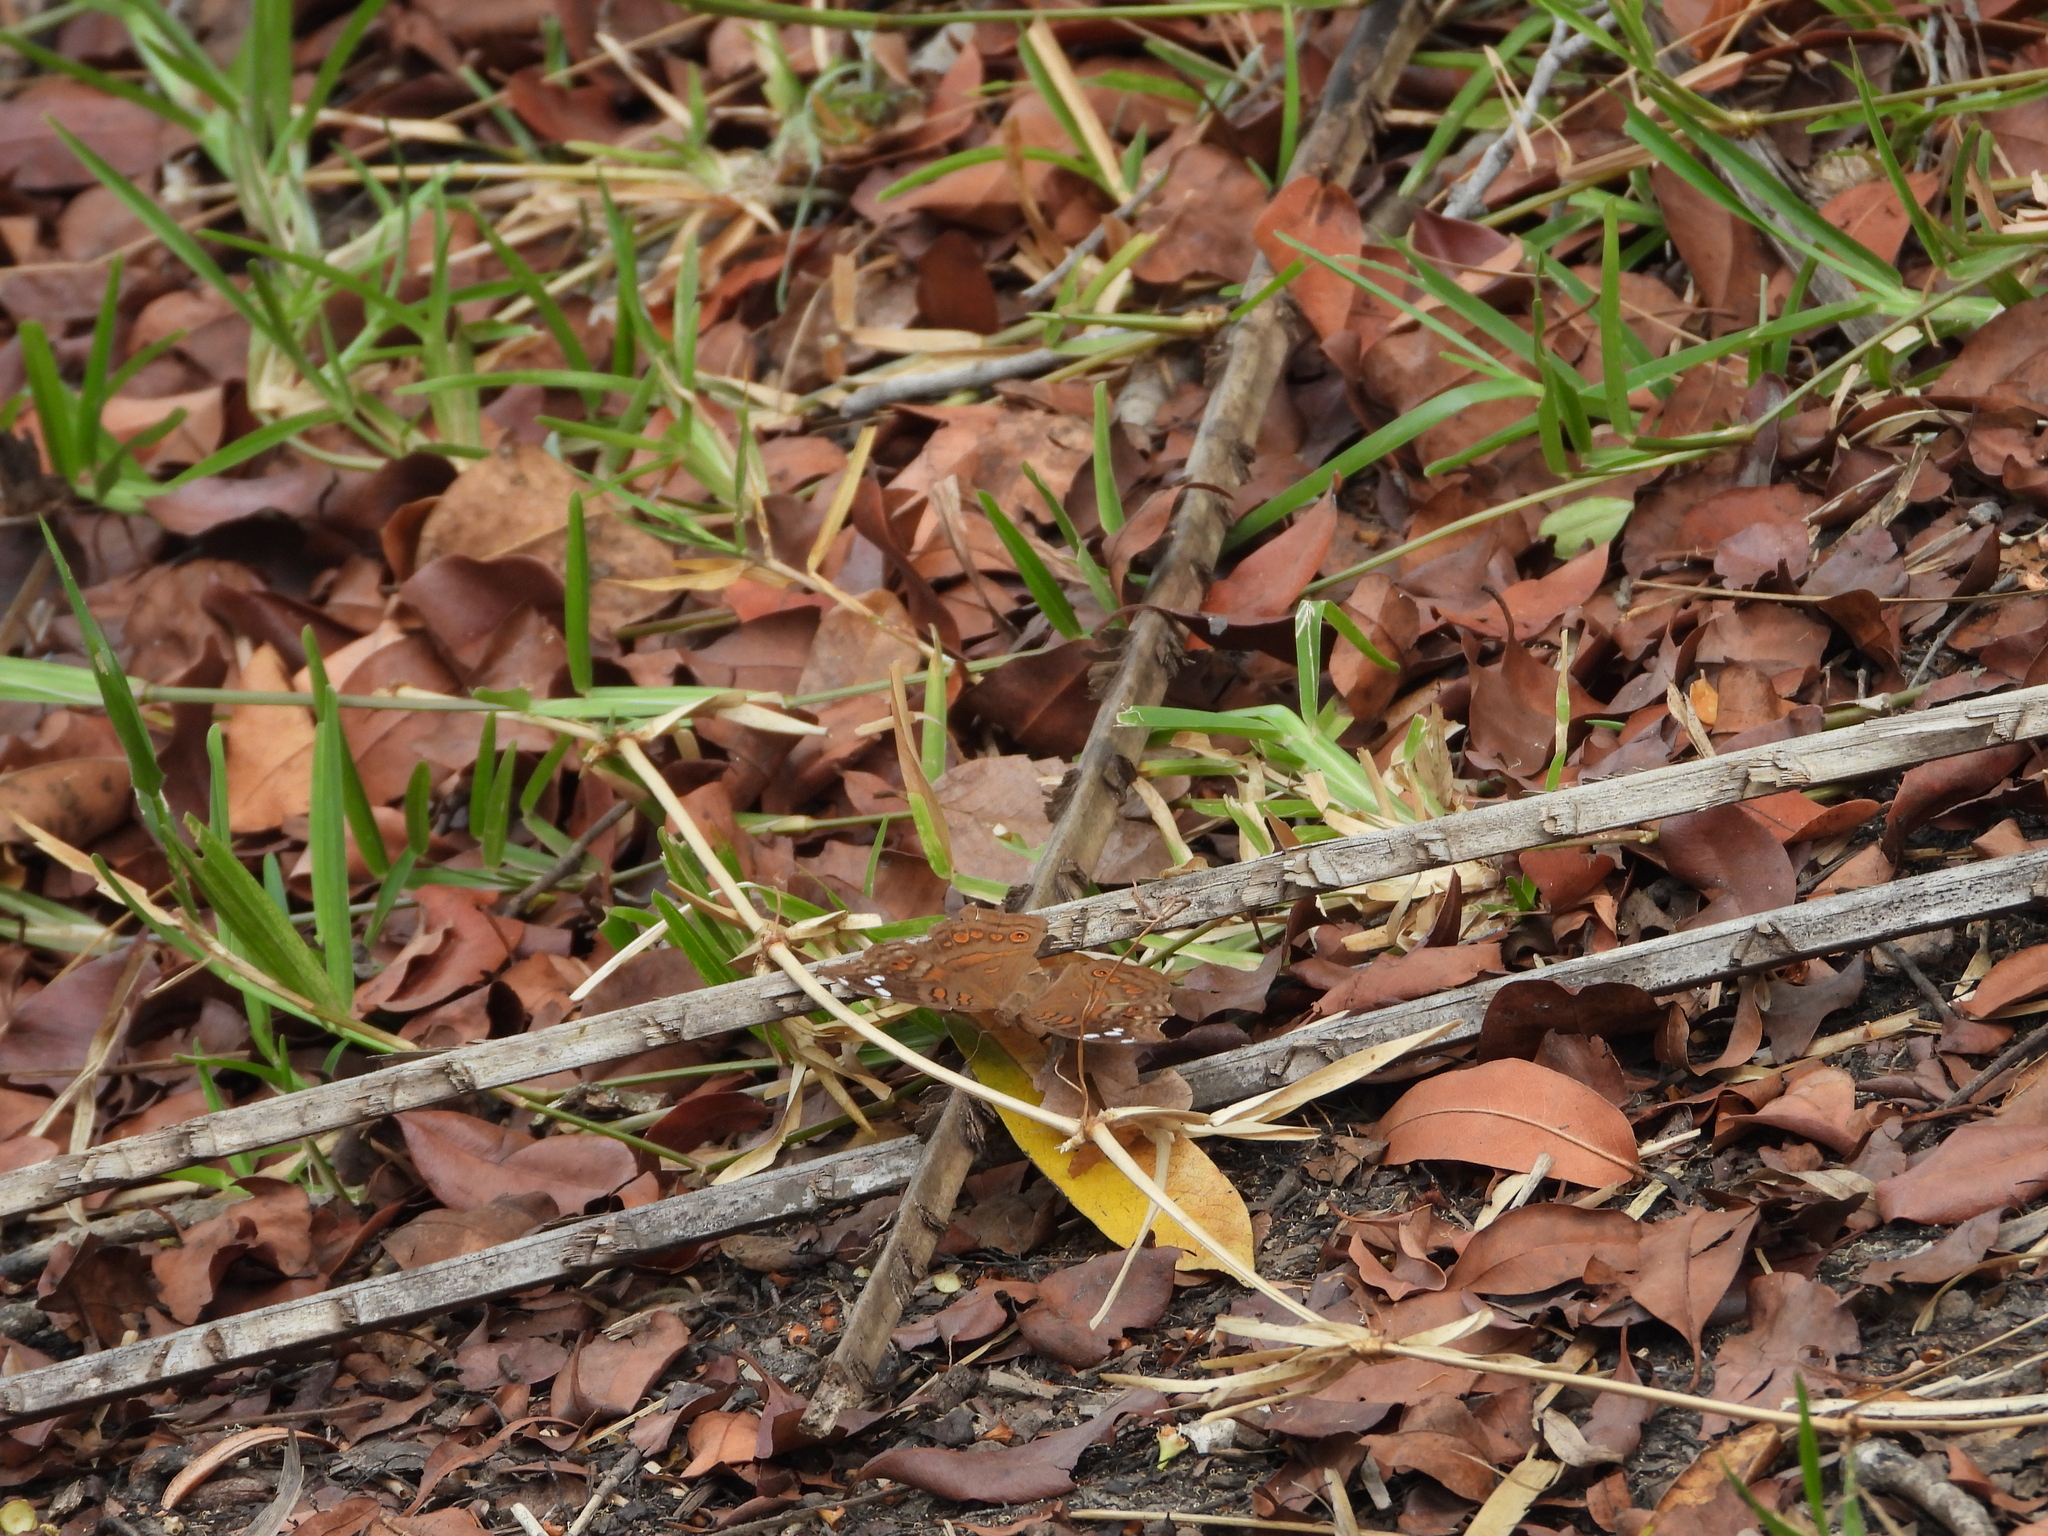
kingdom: Animalia
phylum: Arthropoda
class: Insecta
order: Lepidoptera
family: Nymphalidae
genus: Junonia
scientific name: Junonia natalica
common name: Brown pansy
